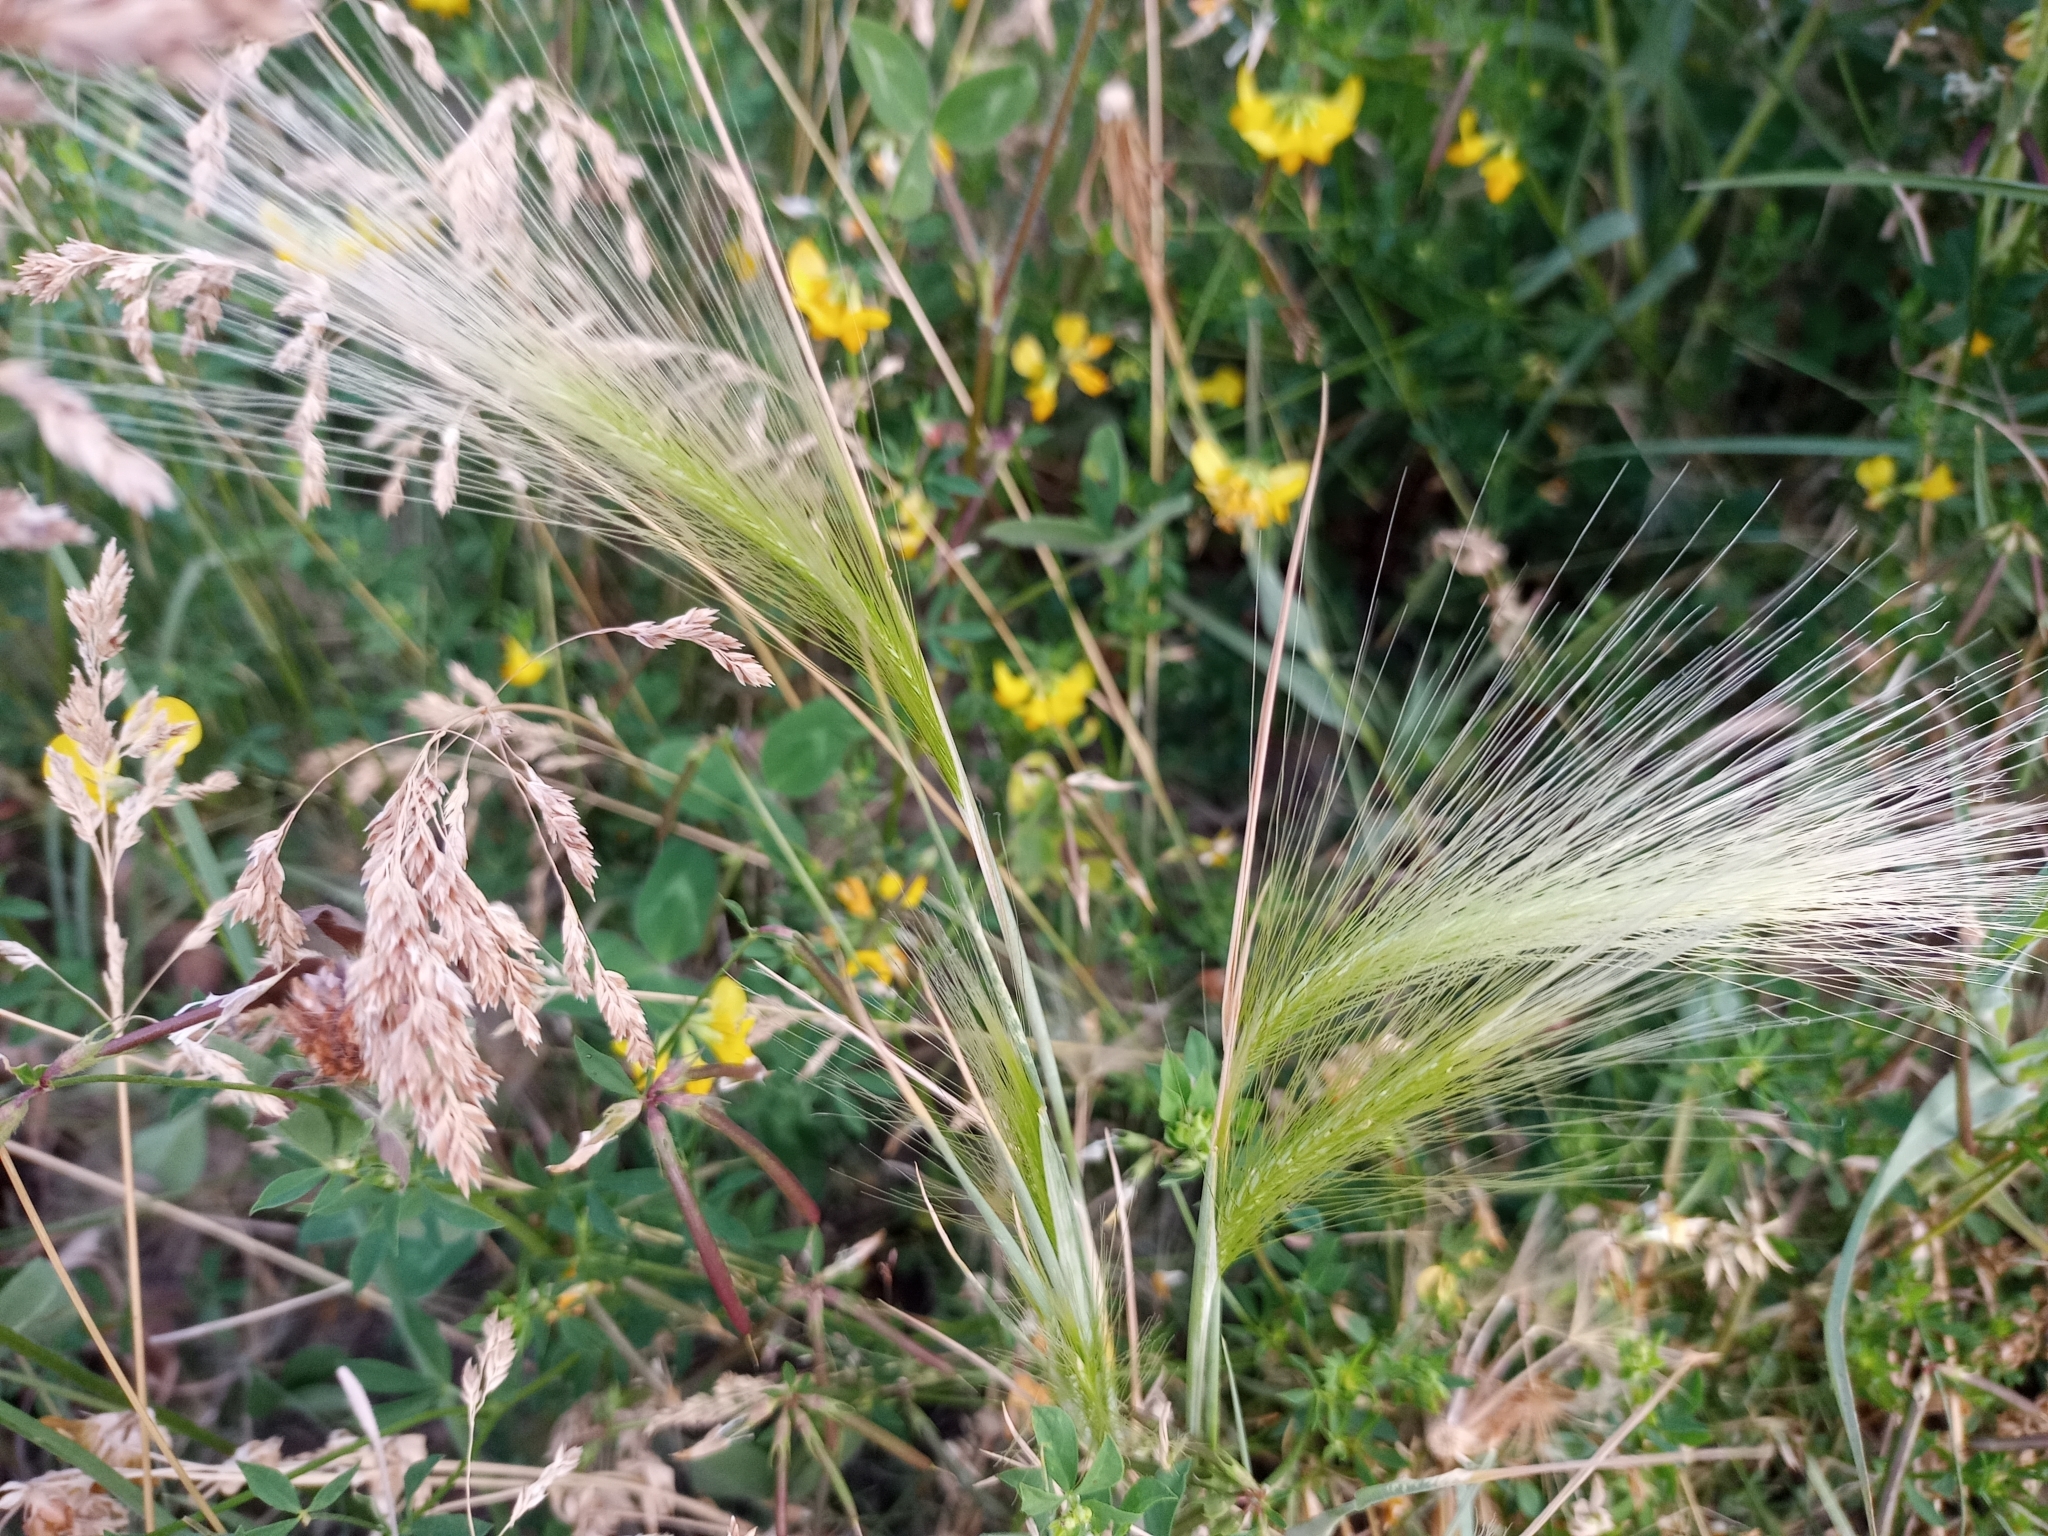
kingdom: Plantae
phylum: Tracheophyta
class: Liliopsida
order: Poales
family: Poaceae
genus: Hordeum
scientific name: Hordeum jubatum
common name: Foxtail barley
